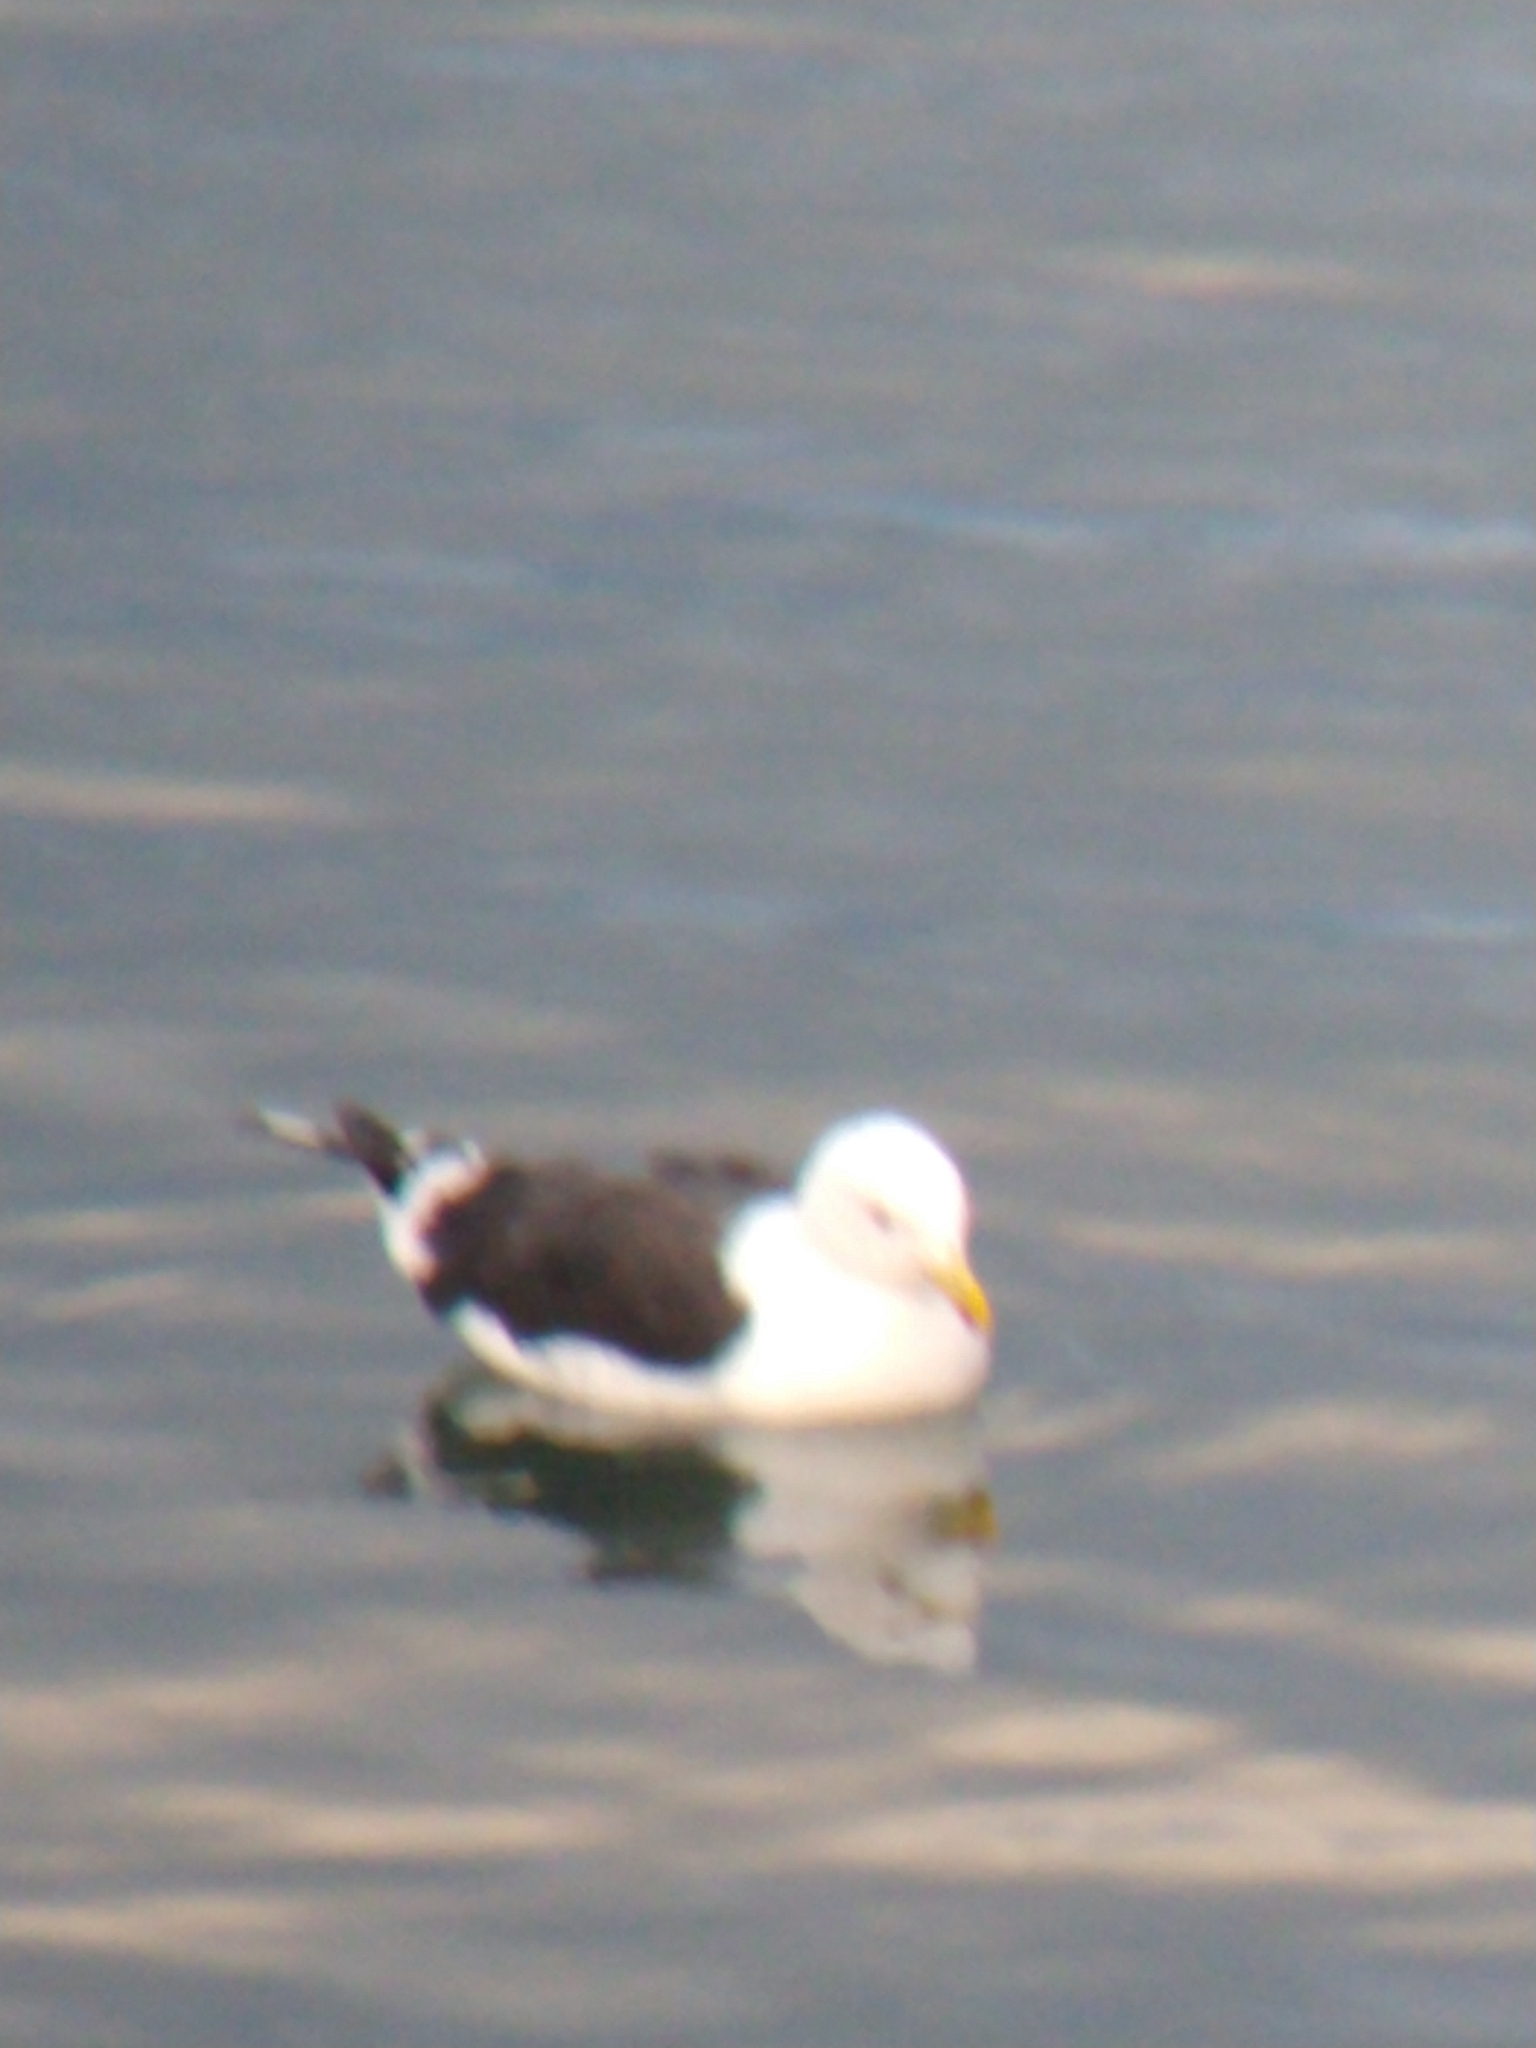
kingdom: Animalia
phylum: Chordata
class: Aves
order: Charadriiformes
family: Laridae
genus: Larus
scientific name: Larus dominicanus
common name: Kelp gull
